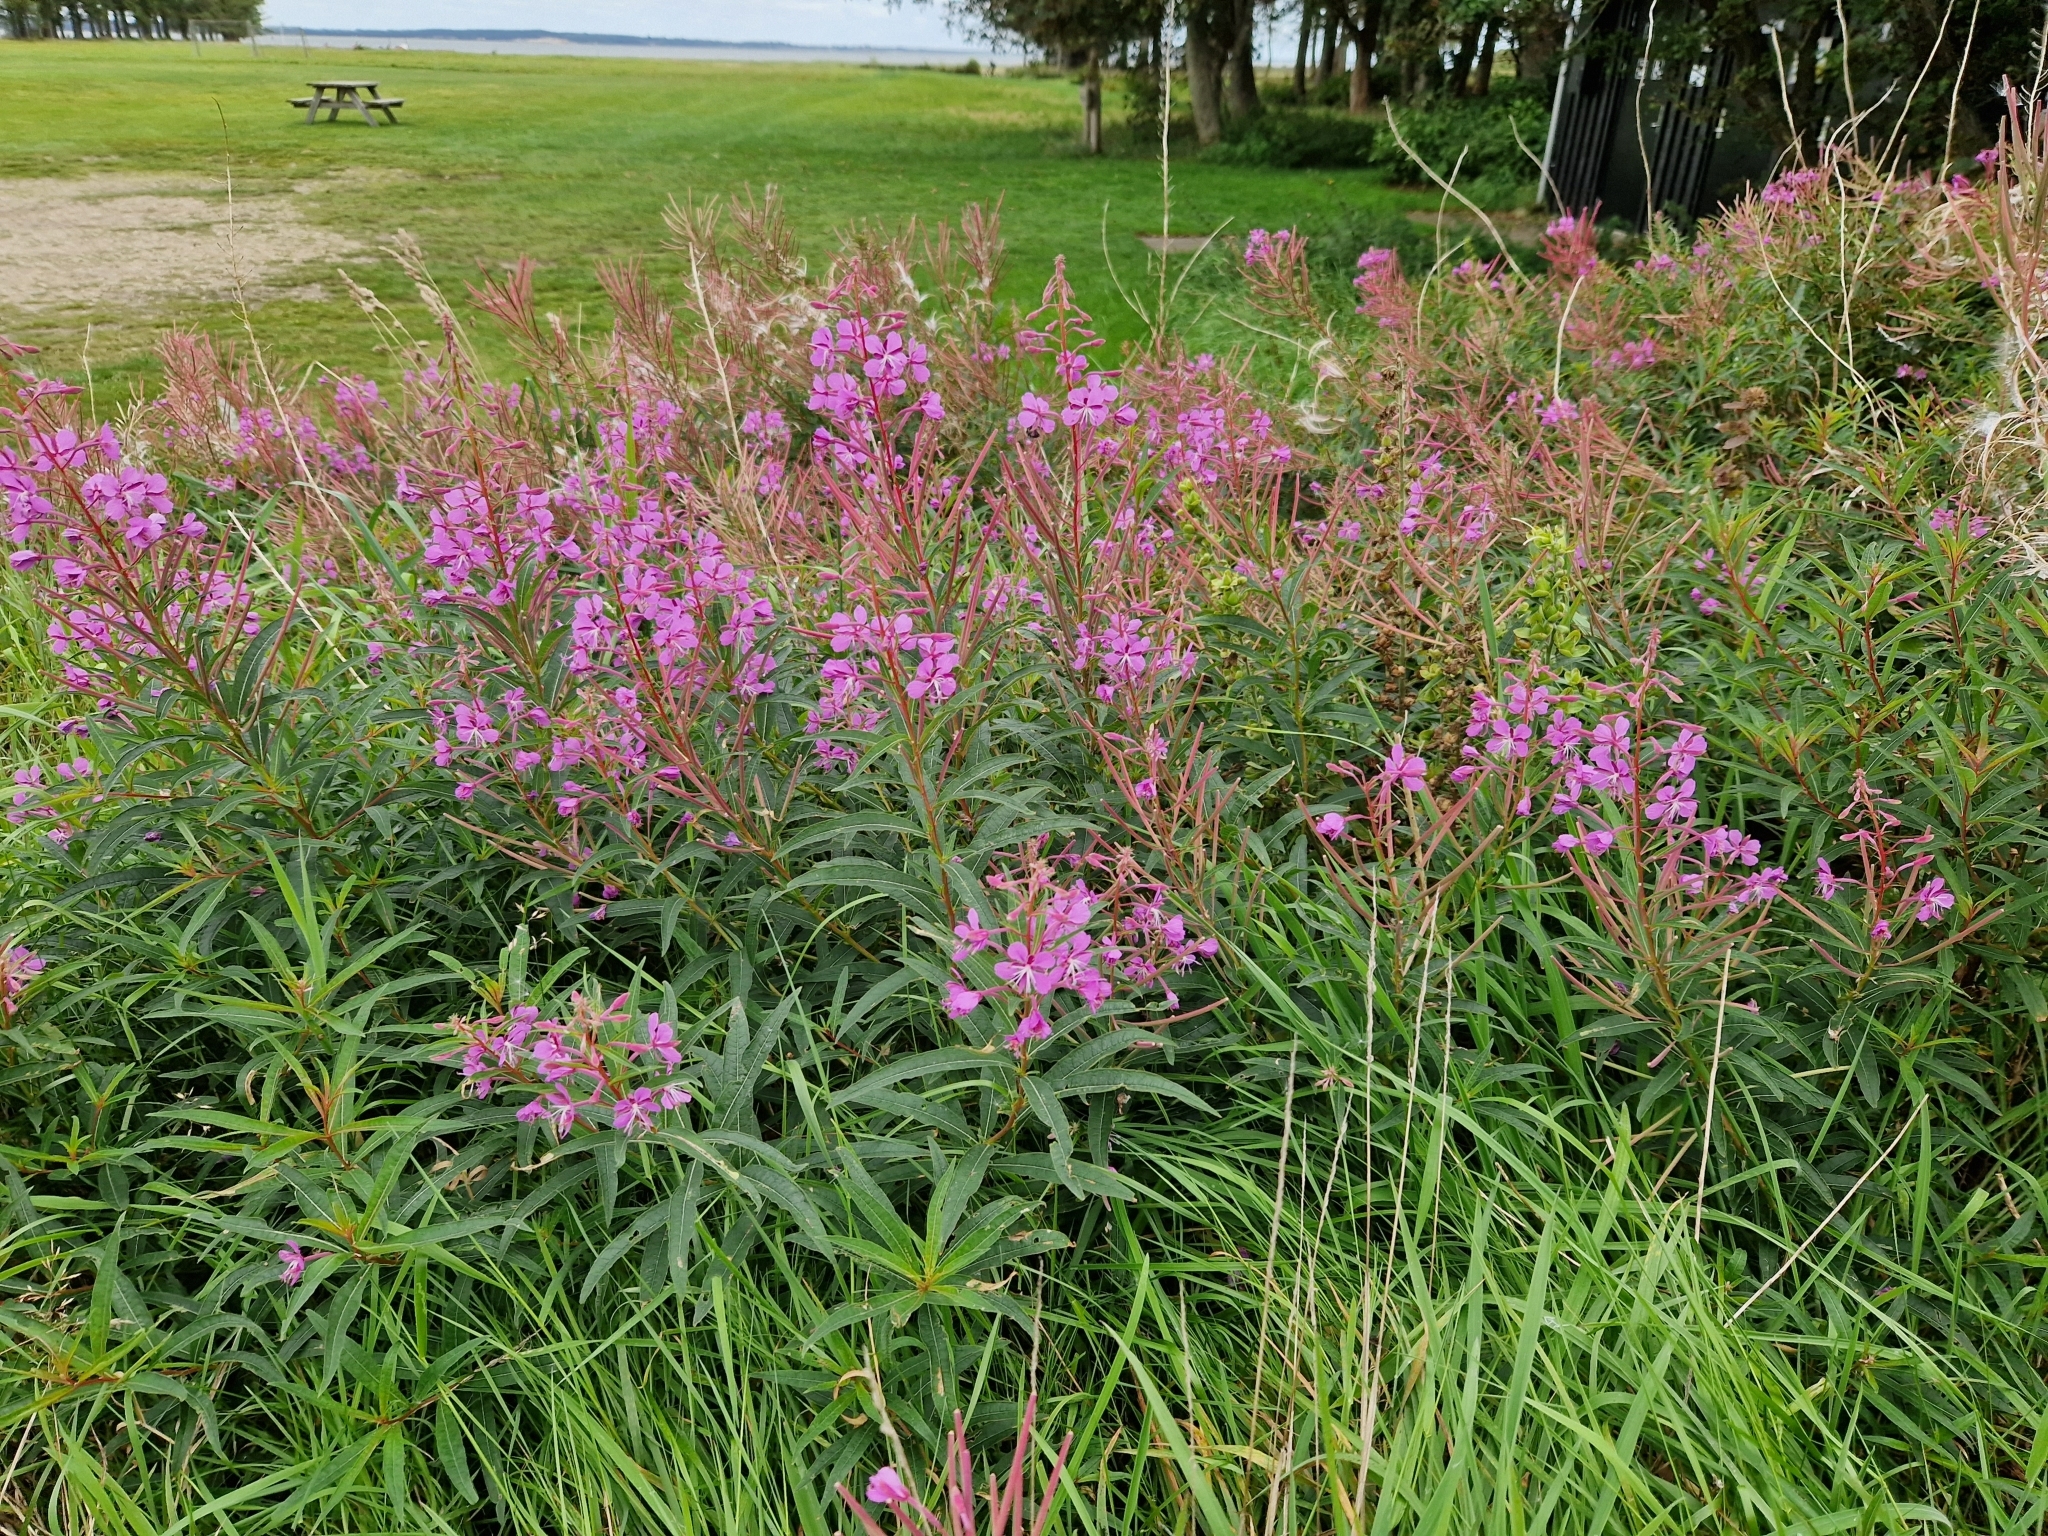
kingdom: Plantae
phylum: Tracheophyta
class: Magnoliopsida
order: Myrtales
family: Onagraceae
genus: Chamaenerion
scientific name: Chamaenerion angustifolium
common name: Fireweed
